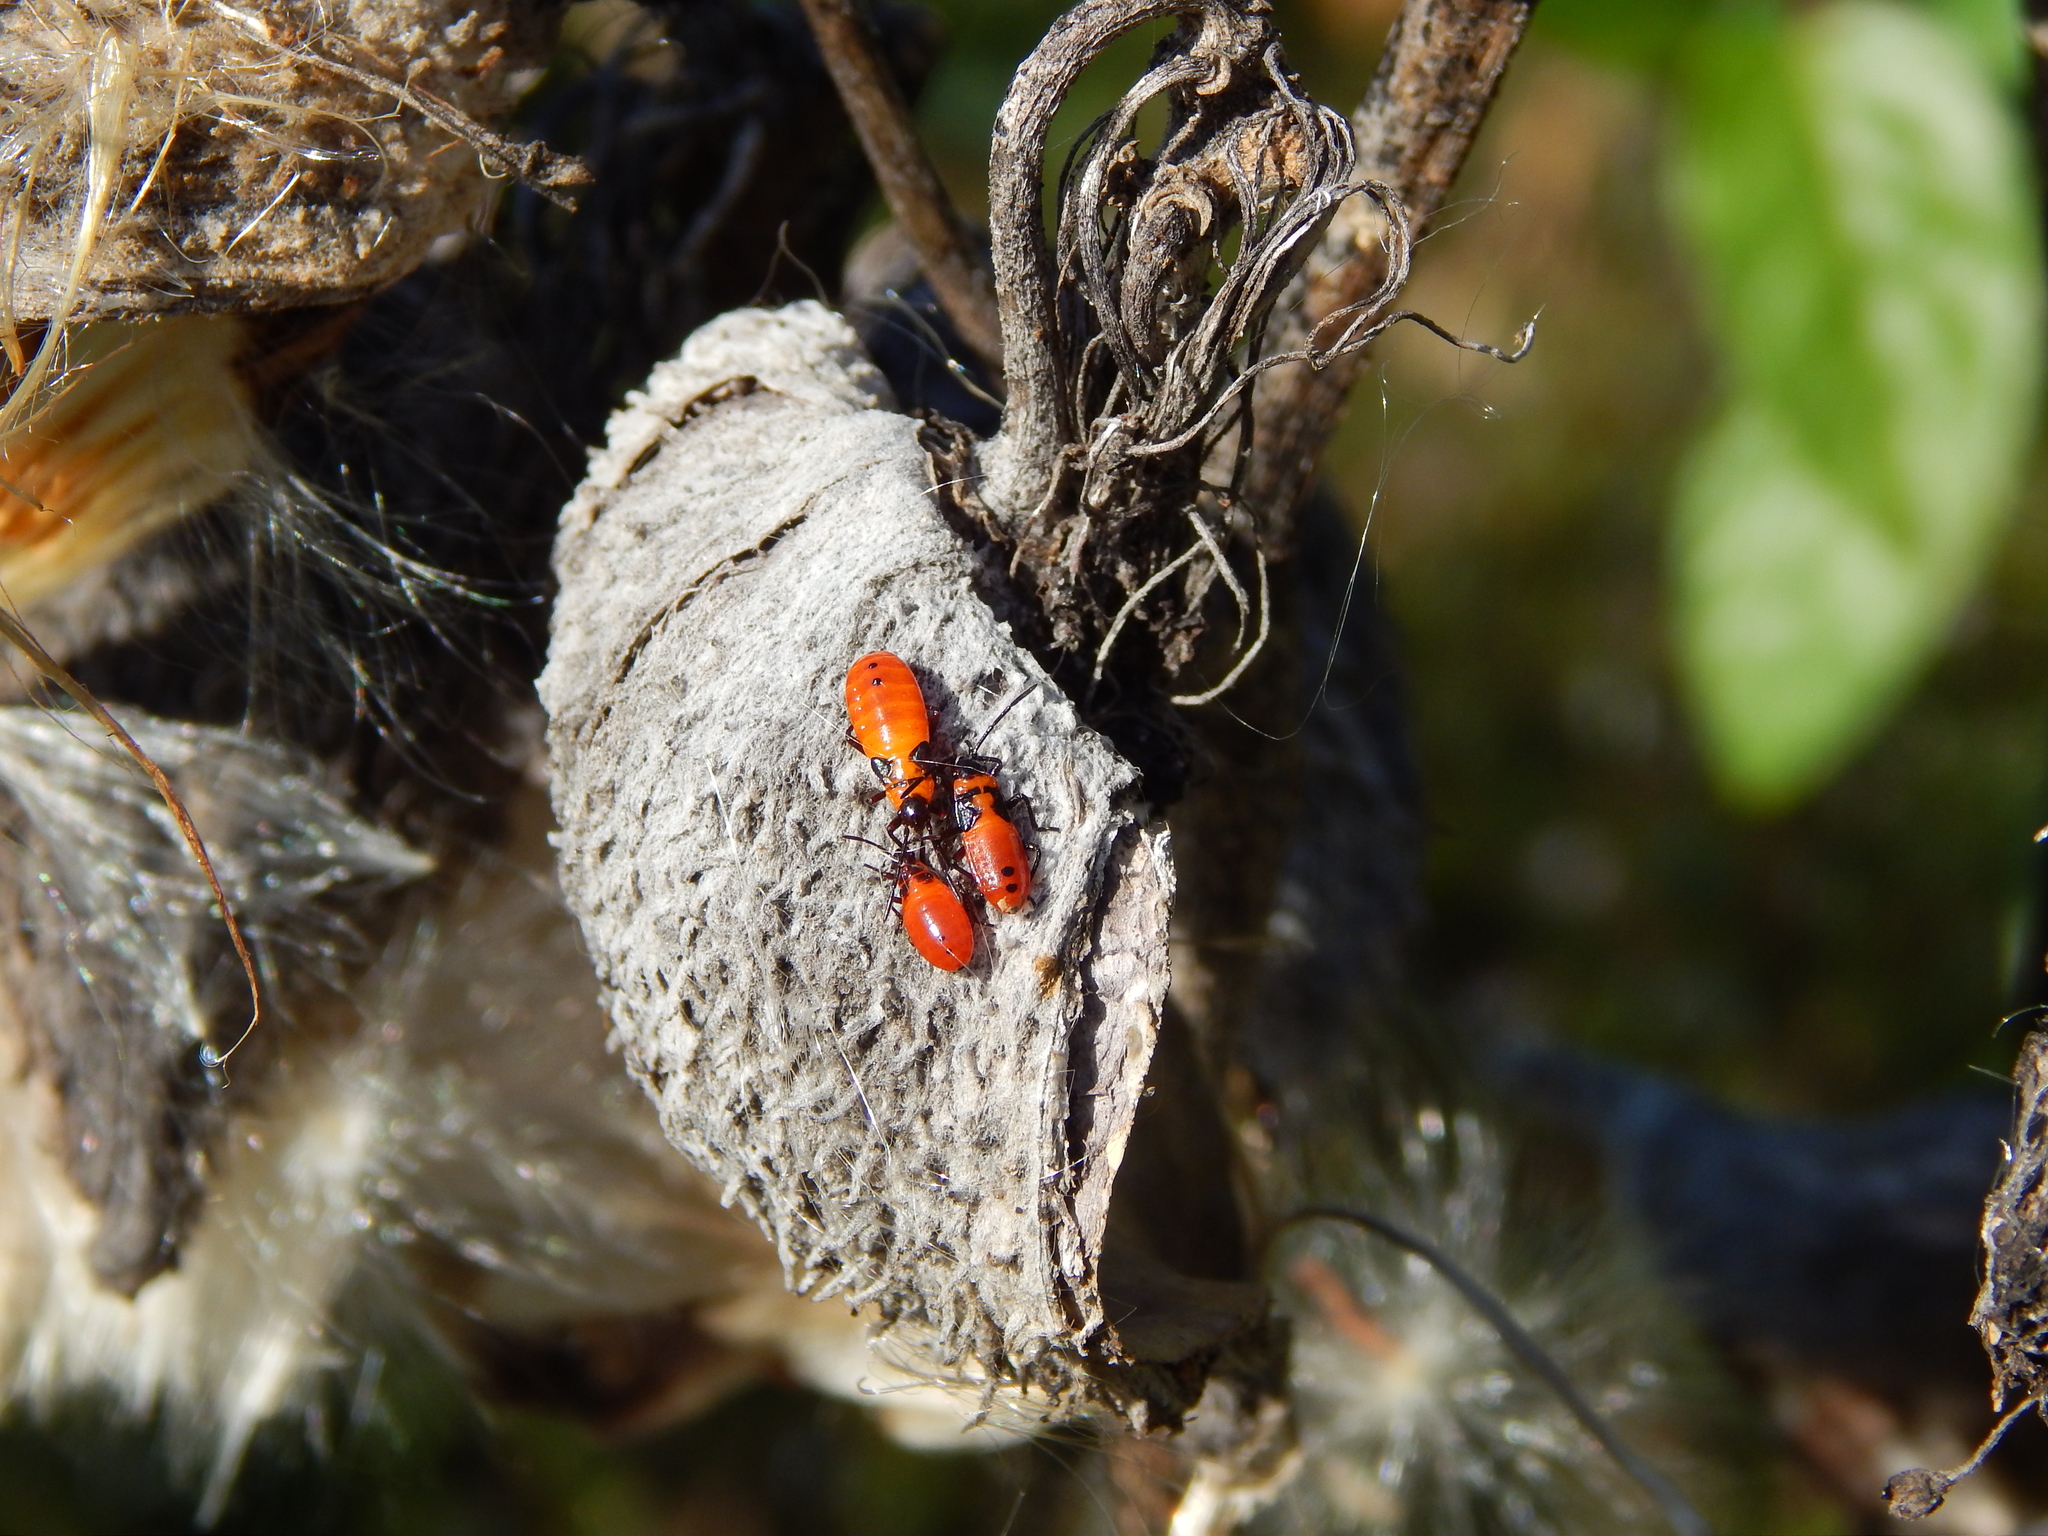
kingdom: Animalia
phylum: Arthropoda
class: Insecta
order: Hemiptera
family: Lygaeidae
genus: Oncopeltus
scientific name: Oncopeltus fasciatus
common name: Large milkweed bug
